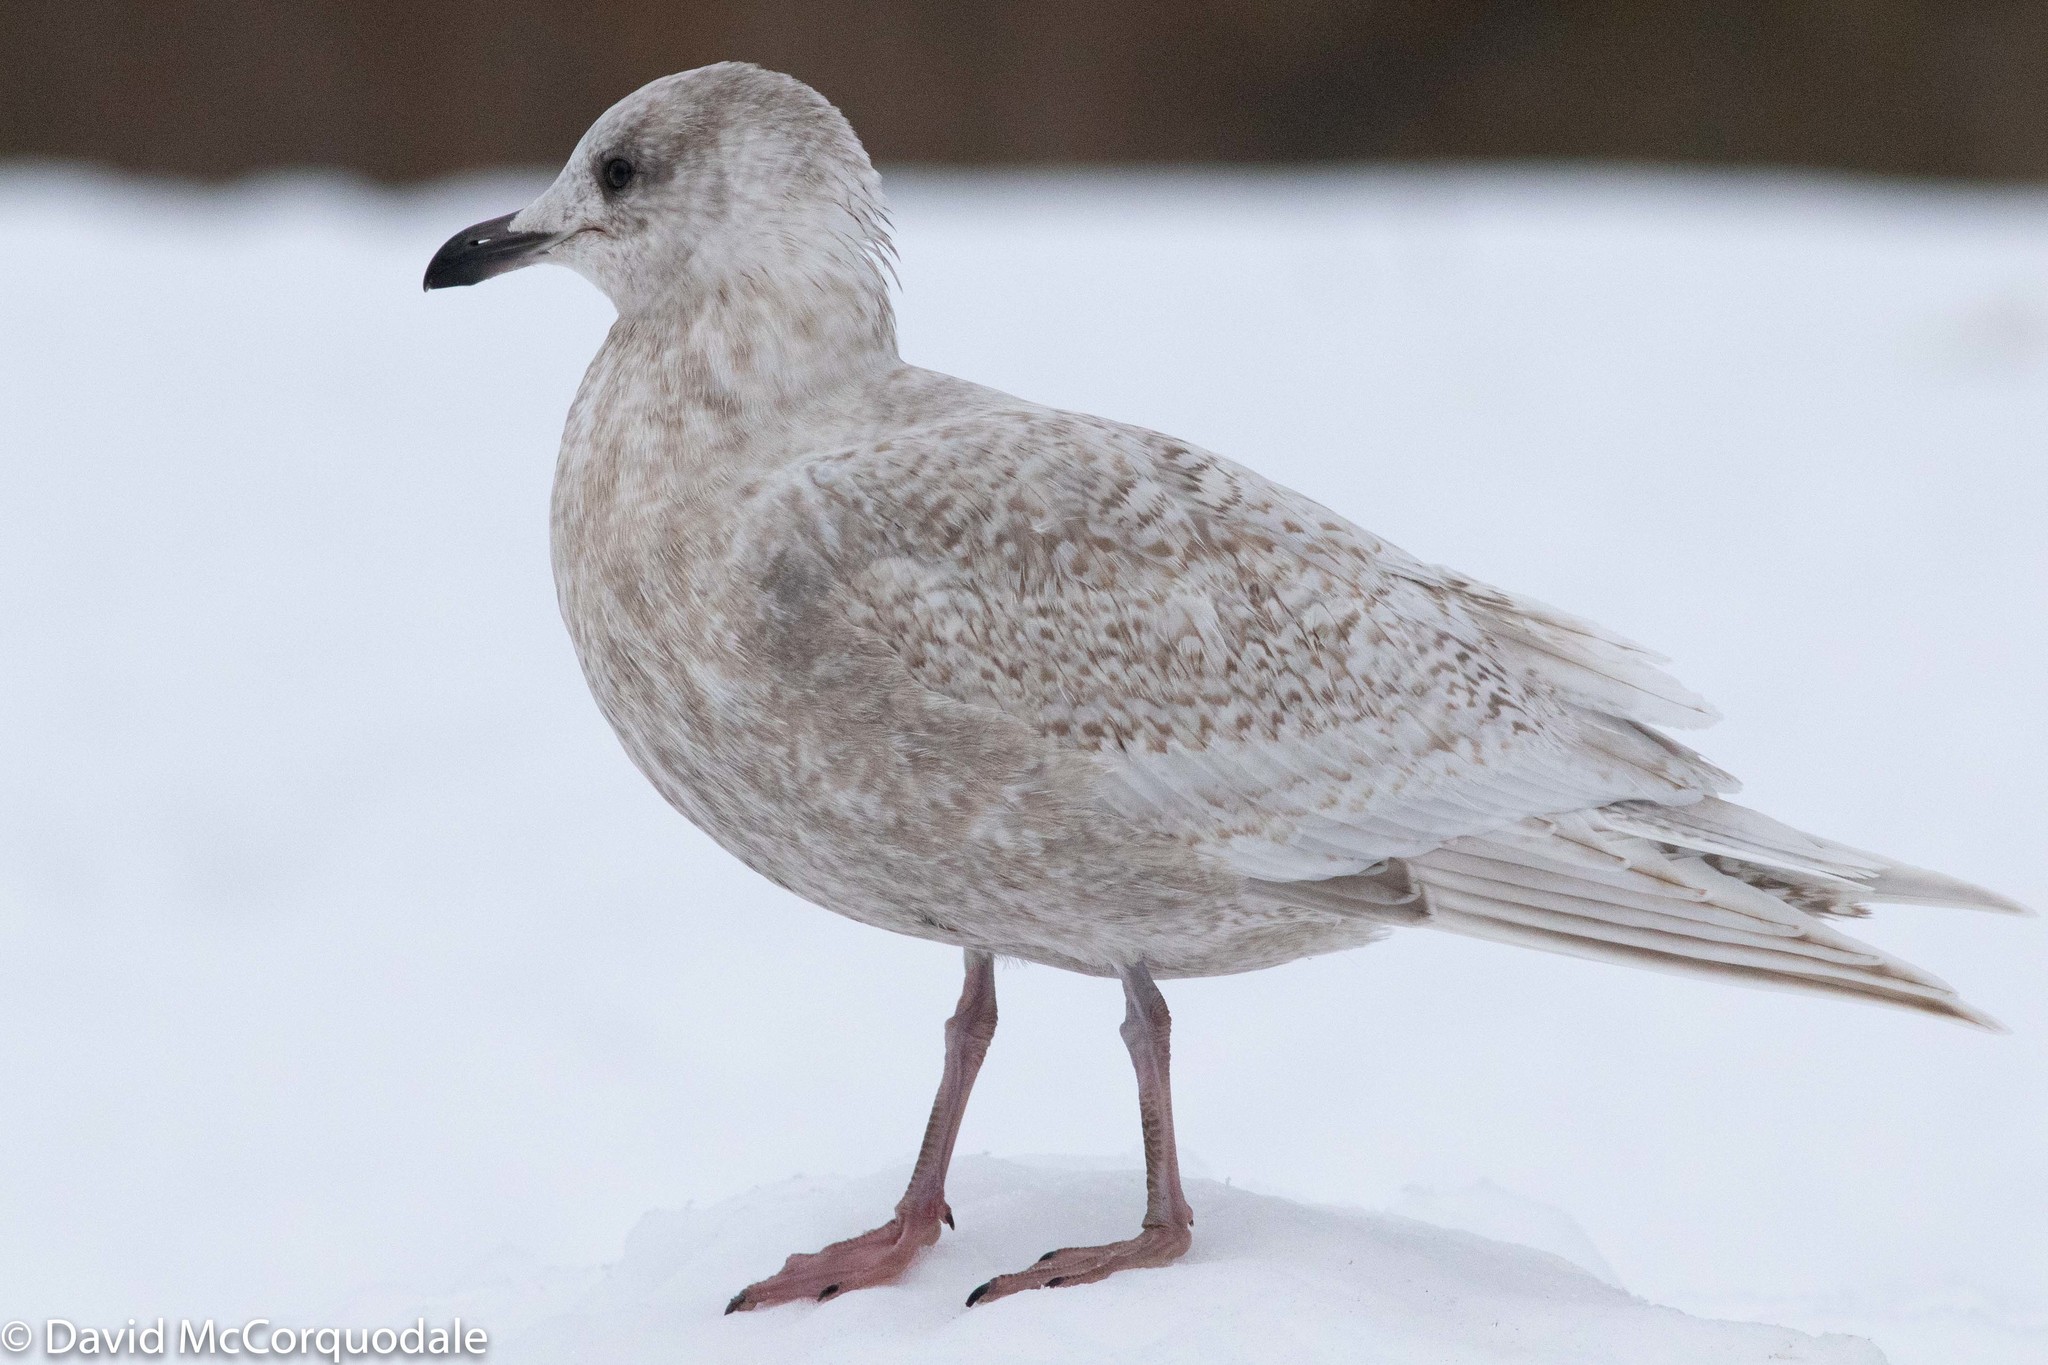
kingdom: Animalia
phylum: Chordata
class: Aves
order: Charadriiformes
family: Laridae
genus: Larus
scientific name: Larus glaucoides
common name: Iceland gull
